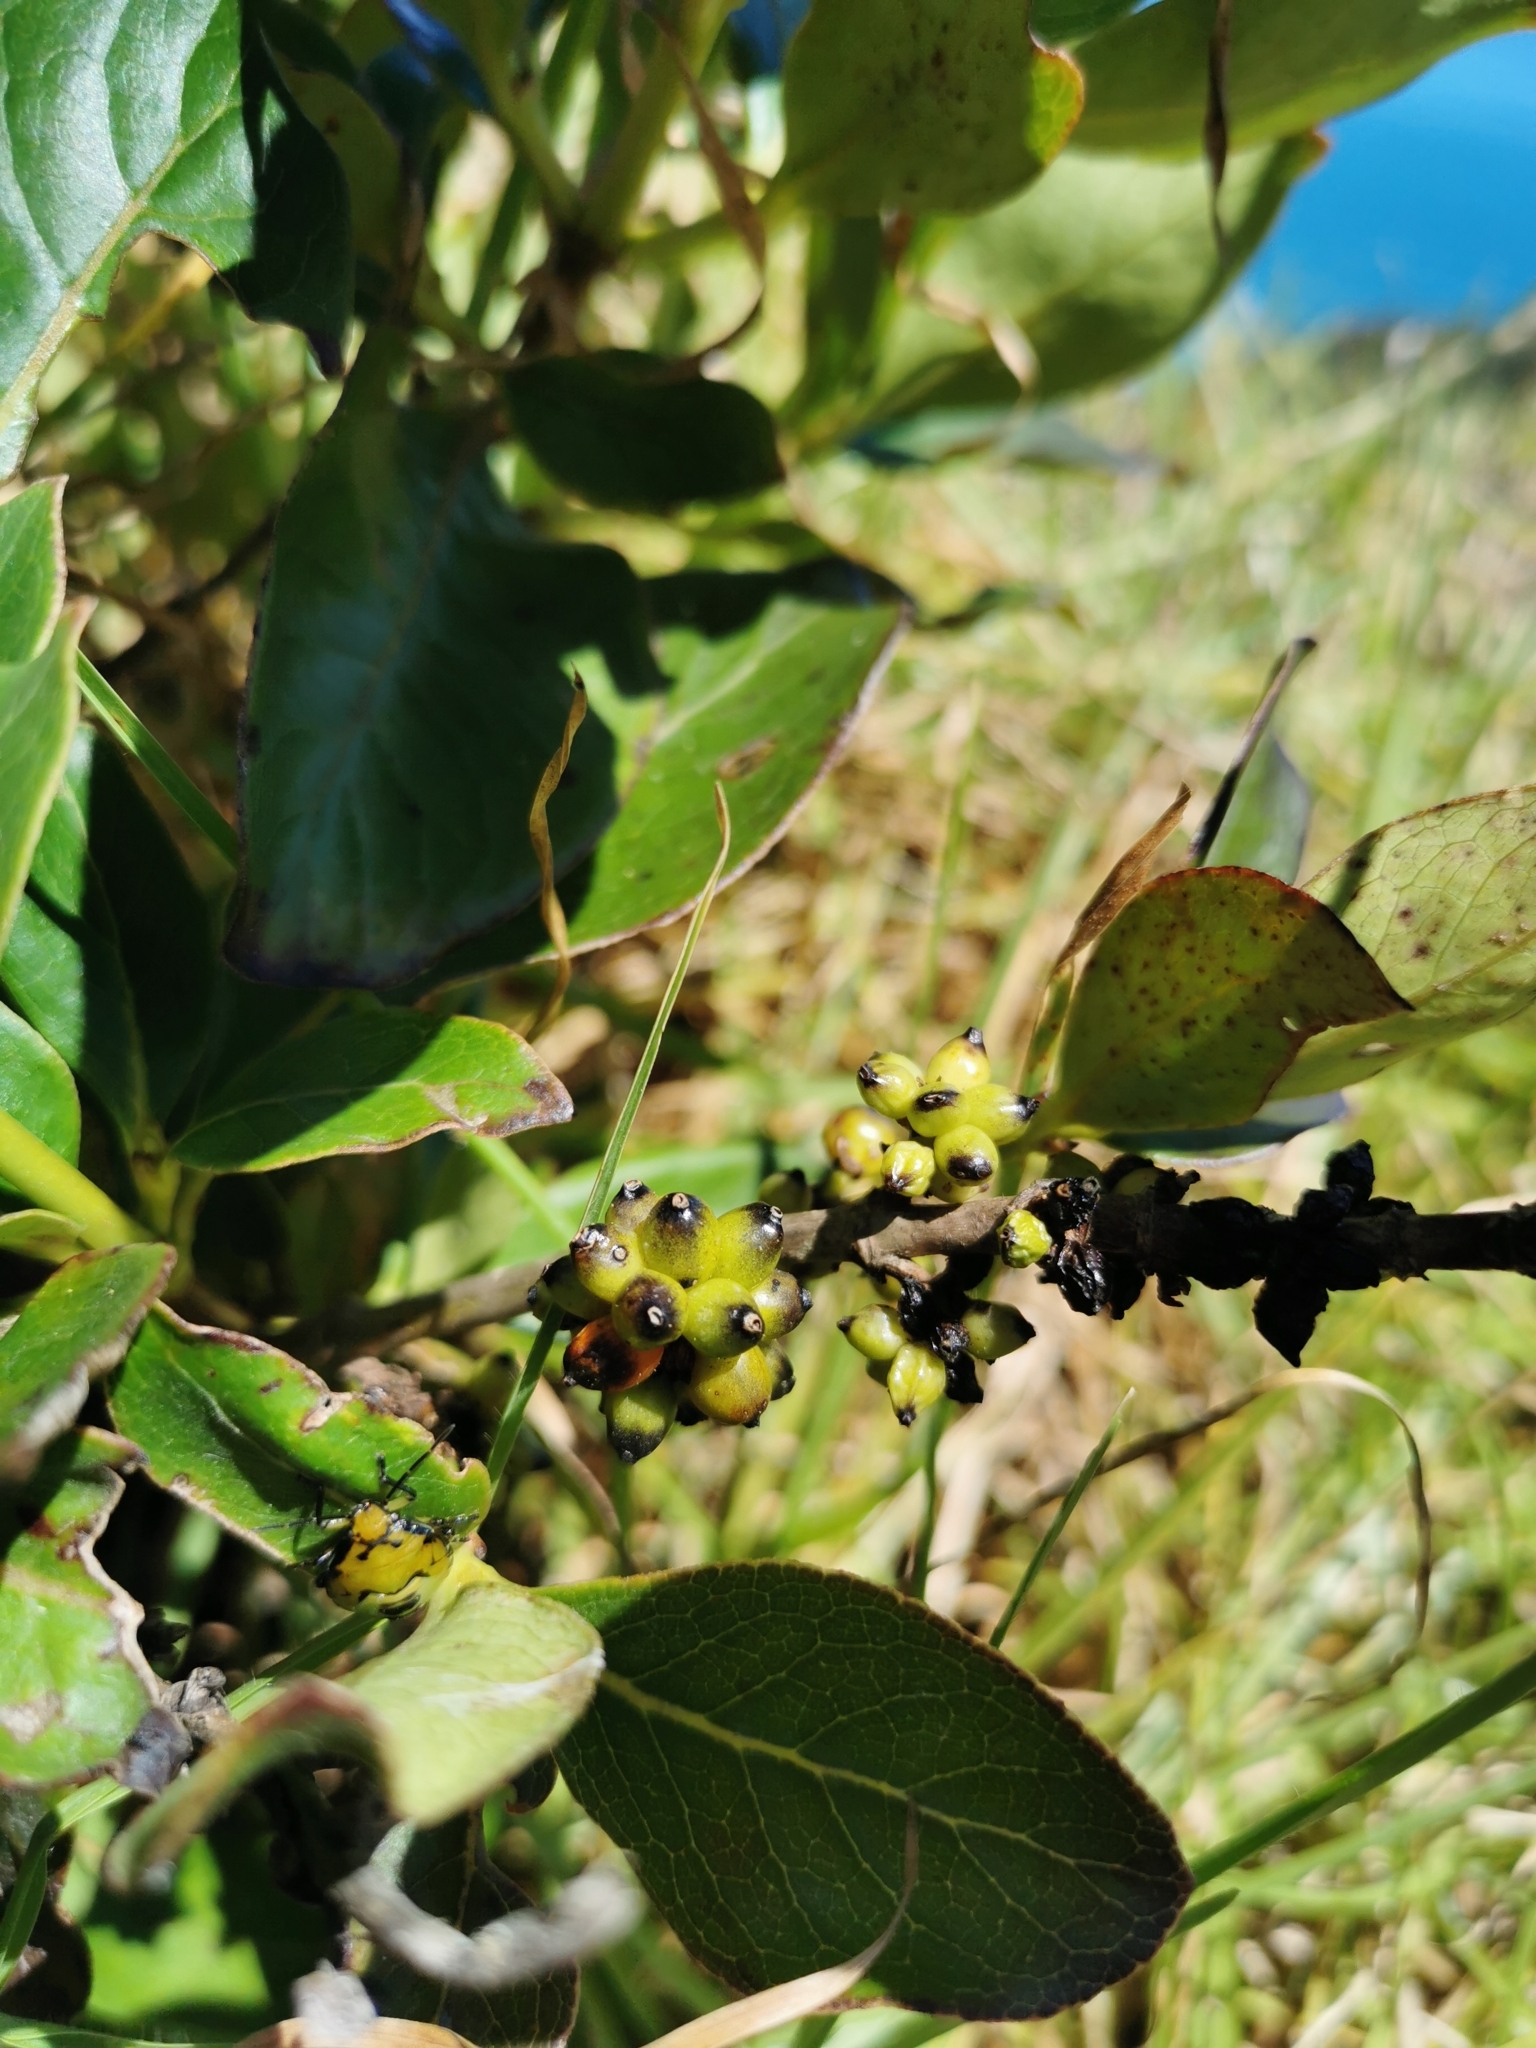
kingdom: Plantae
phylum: Tracheophyta
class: Magnoliopsida
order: Gentianales
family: Rubiaceae
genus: Coprosma
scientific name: Coprosma robusta
